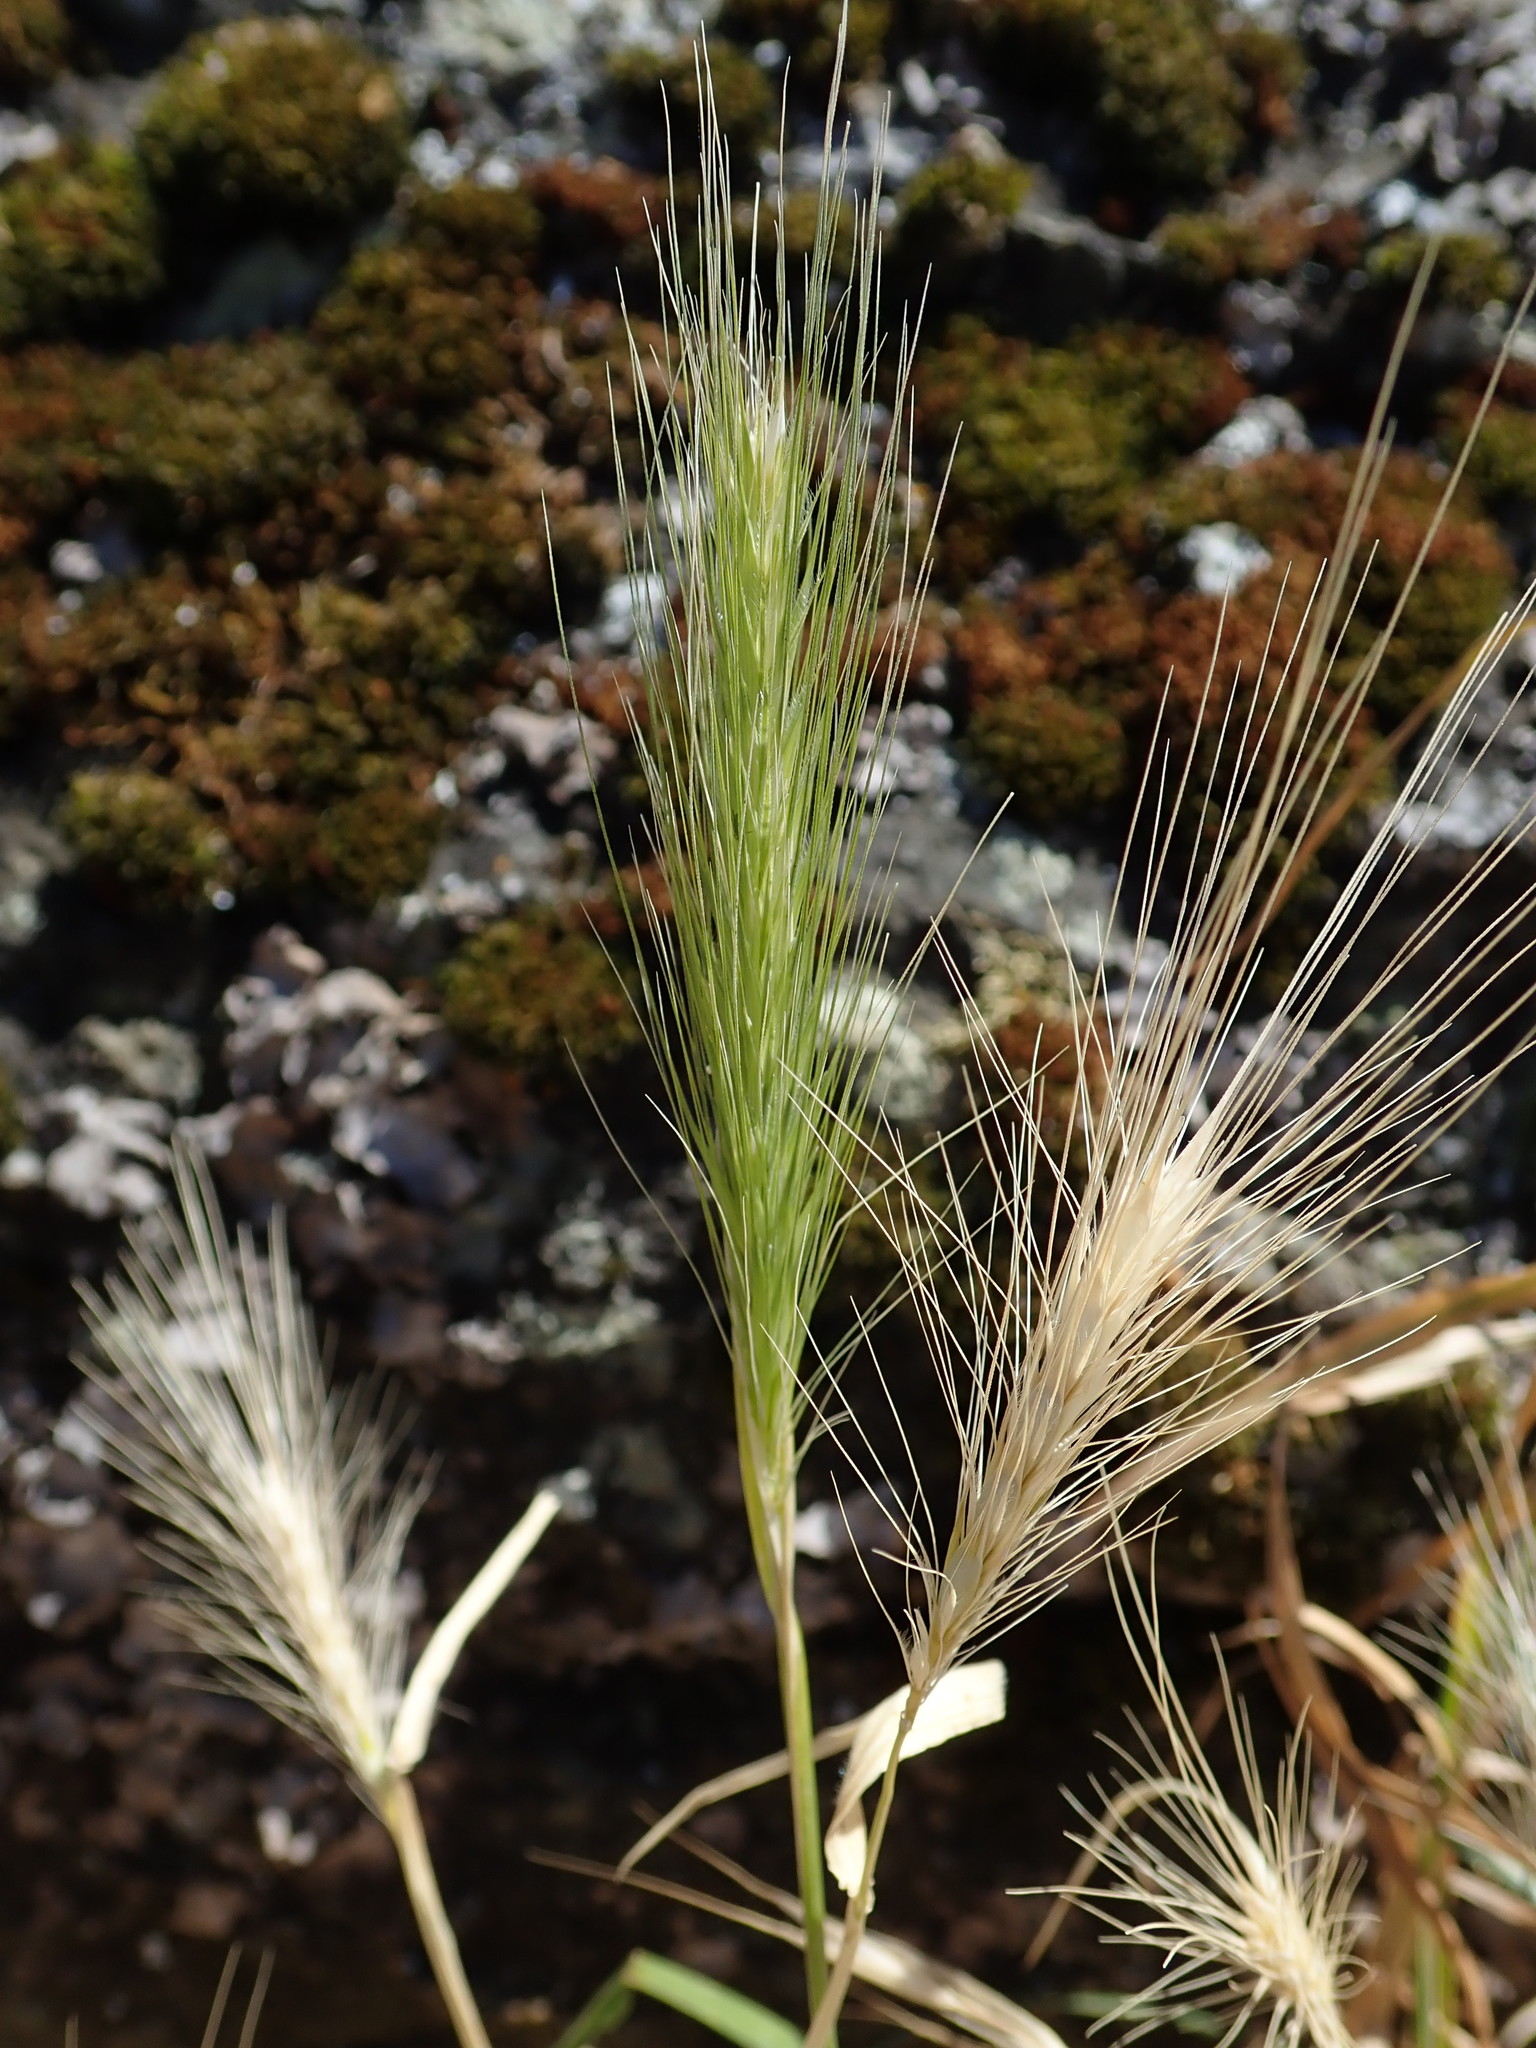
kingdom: Plantae
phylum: Tracheophyta
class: Liliopsida
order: Poales
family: Poaceae
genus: Hordeum
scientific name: Hordeum murinum
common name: Wall barley
